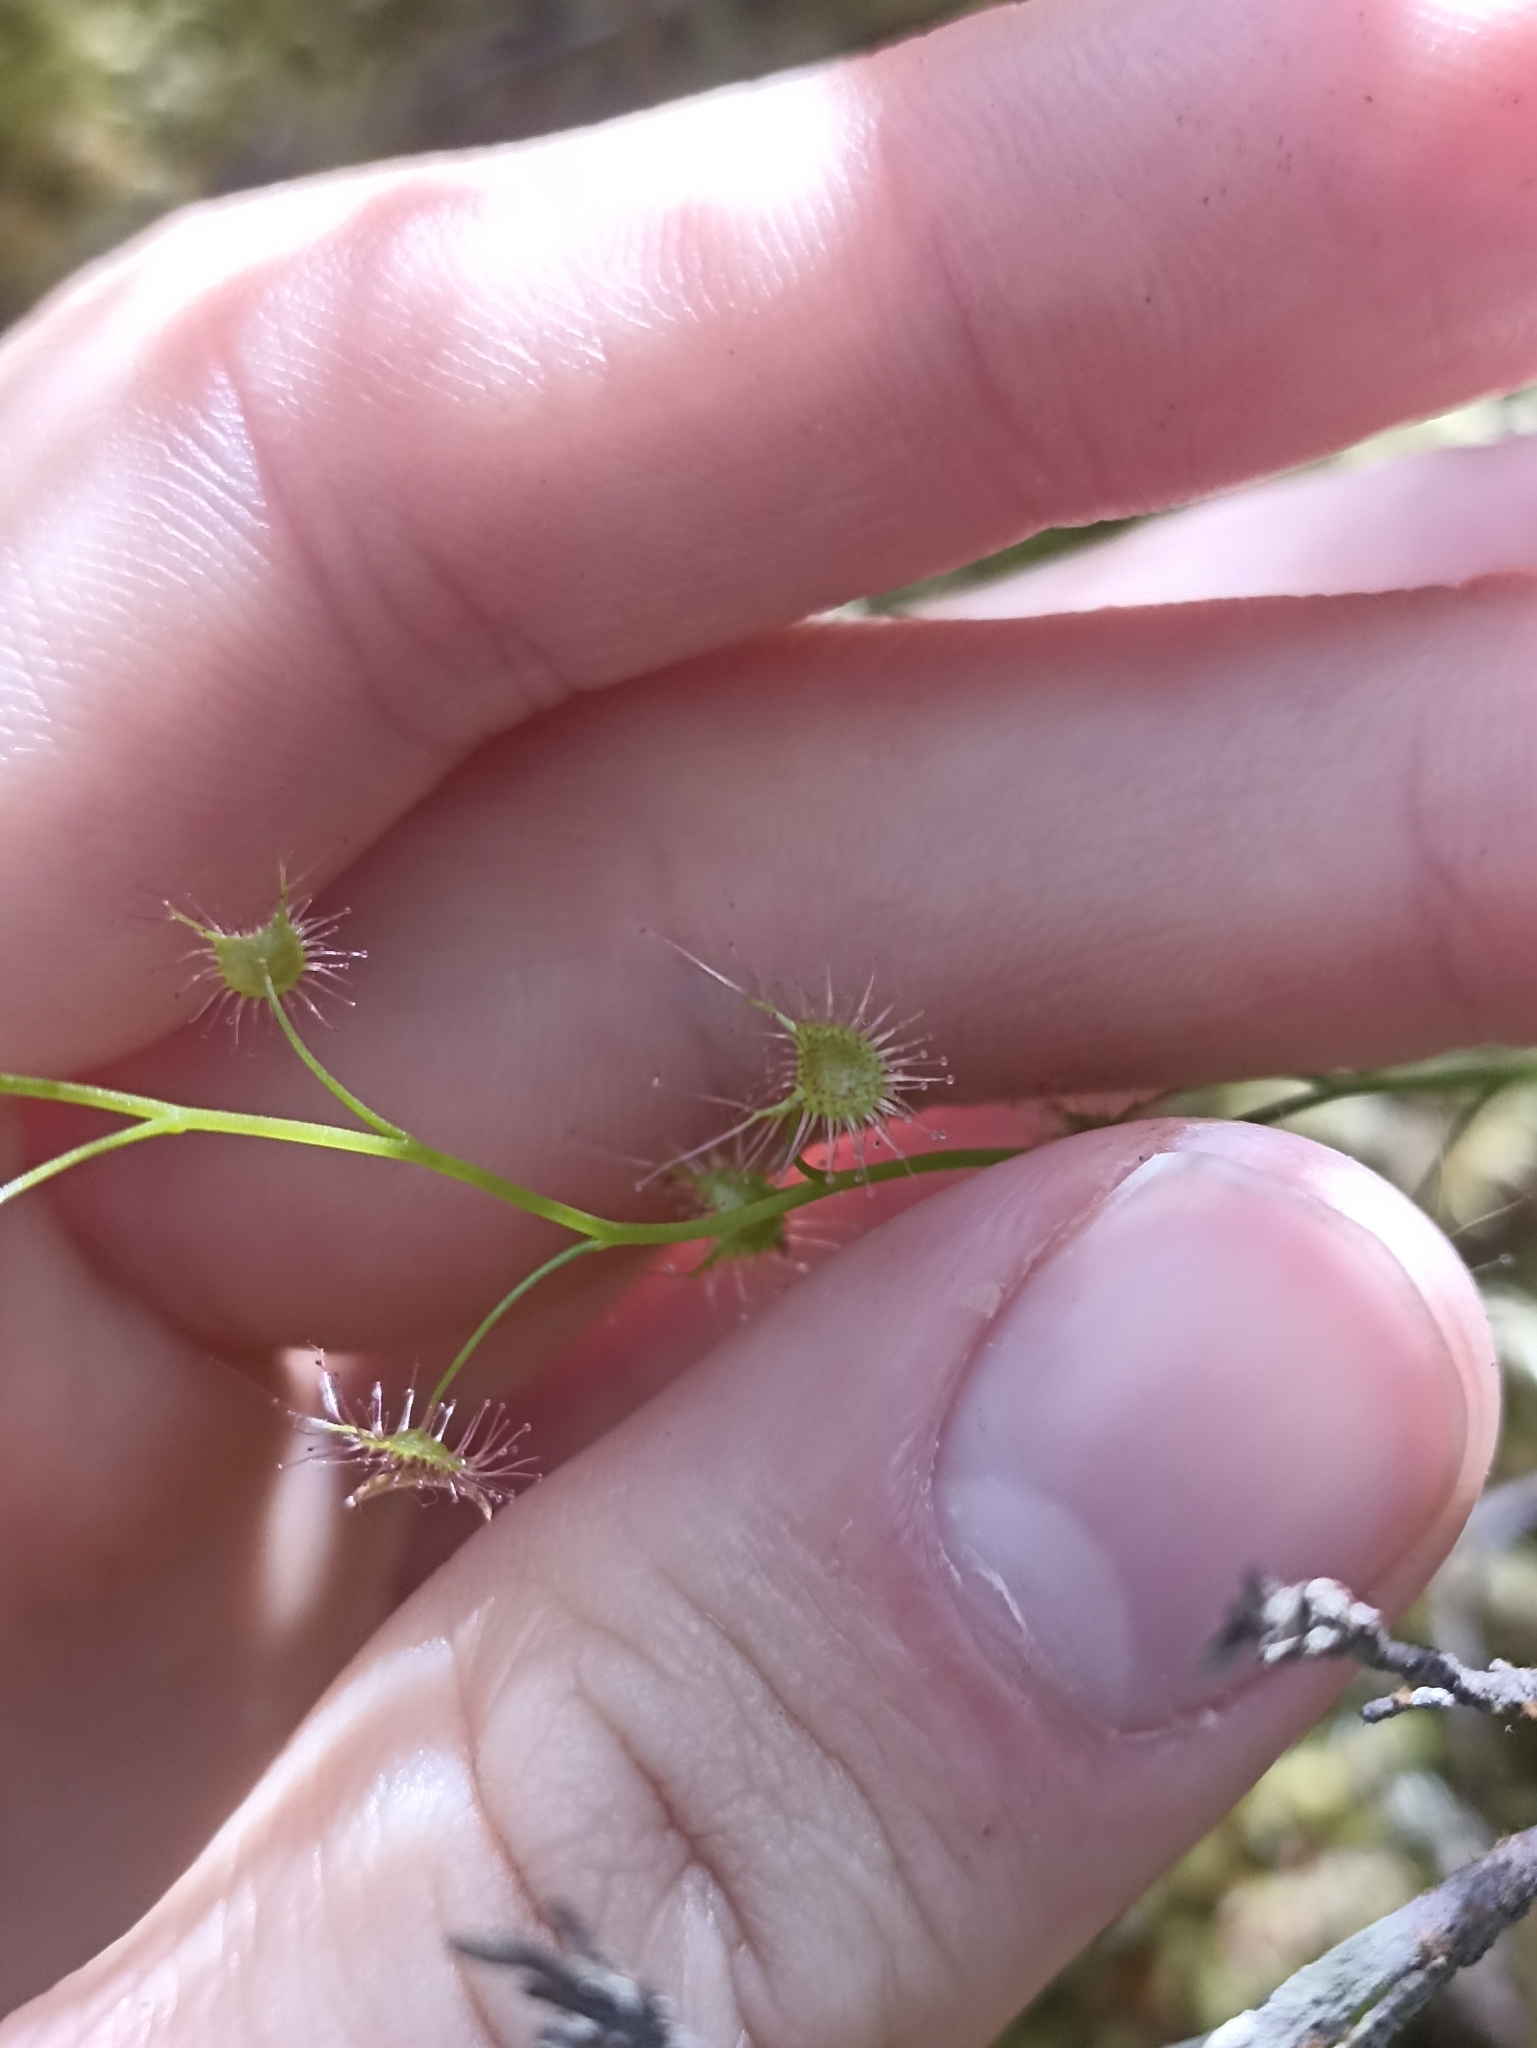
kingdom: Plantae
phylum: Tracheophyta
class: Magnoliopsida
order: Caryophyllales
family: Droseraceae
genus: Drosera
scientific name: Drosera peltata
